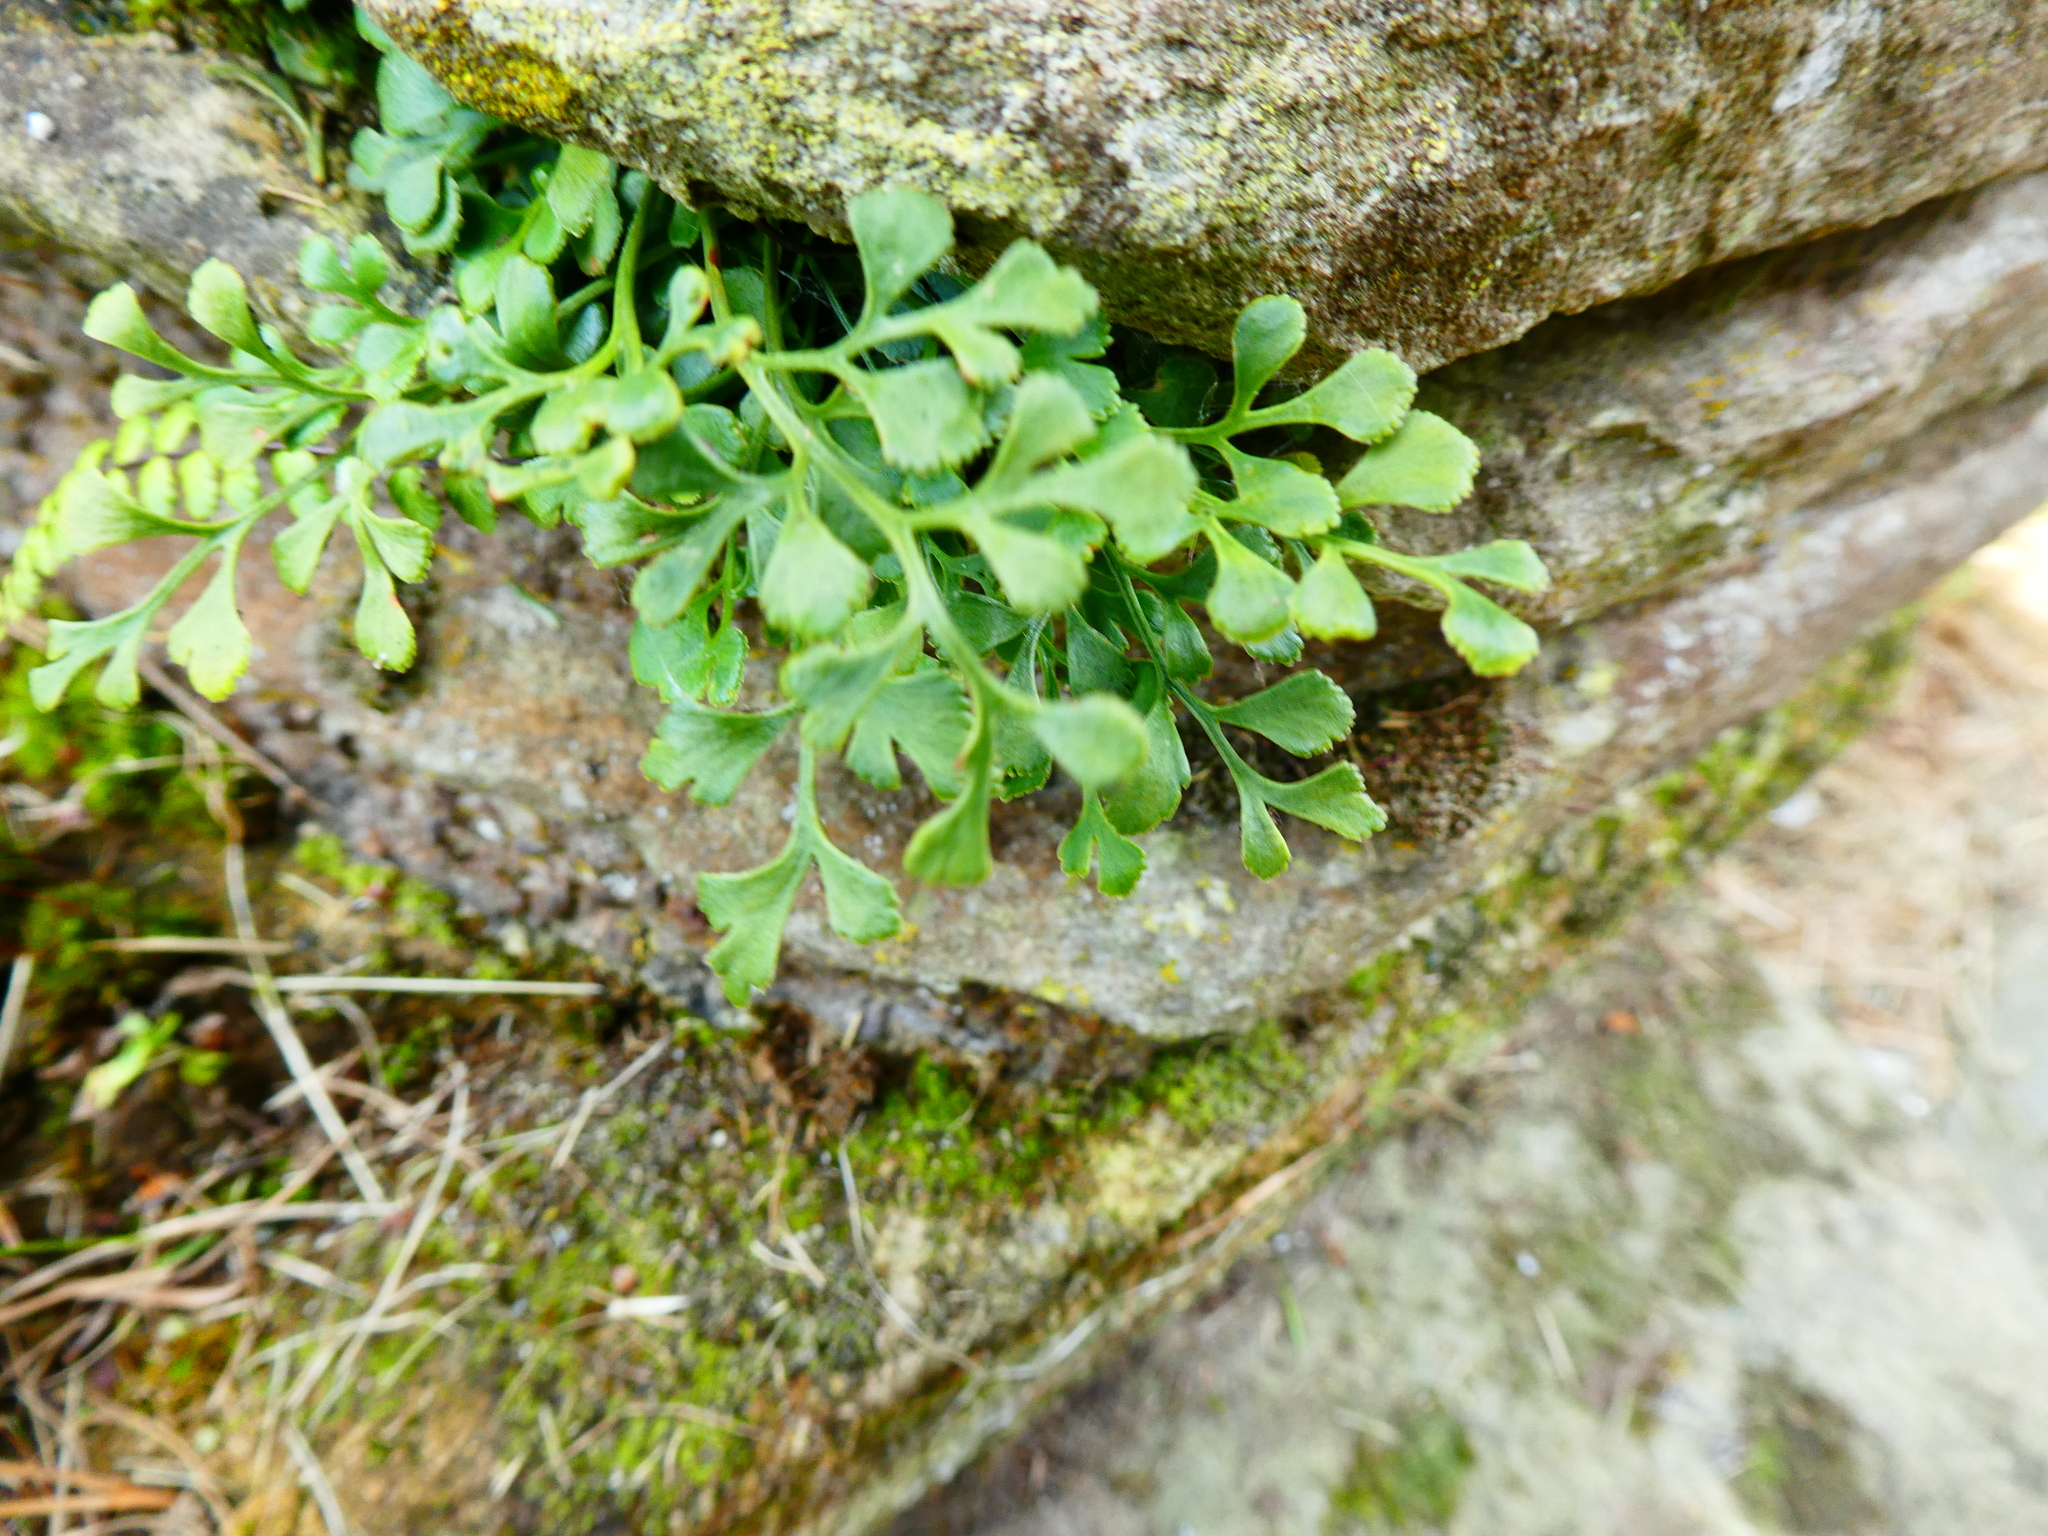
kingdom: Plantae
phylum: Tracheophyta
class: Polypodiopsida
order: Polypodiales
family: Aspleniaceae
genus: Asplenium
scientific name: Asplenium ruta-muraria
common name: Wall-rue
